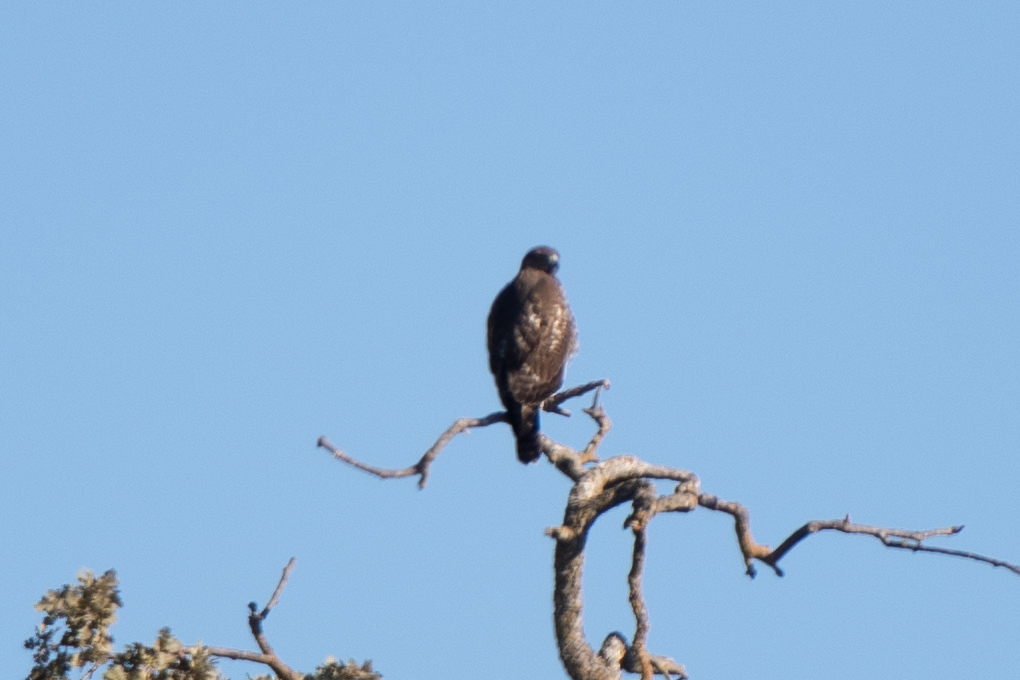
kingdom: Animalia
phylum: Chordata
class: Aves
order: Accipitriformes
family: Accipitridae
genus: Buteo
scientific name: Buteo jamaicensis
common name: Red-tailed hawk
